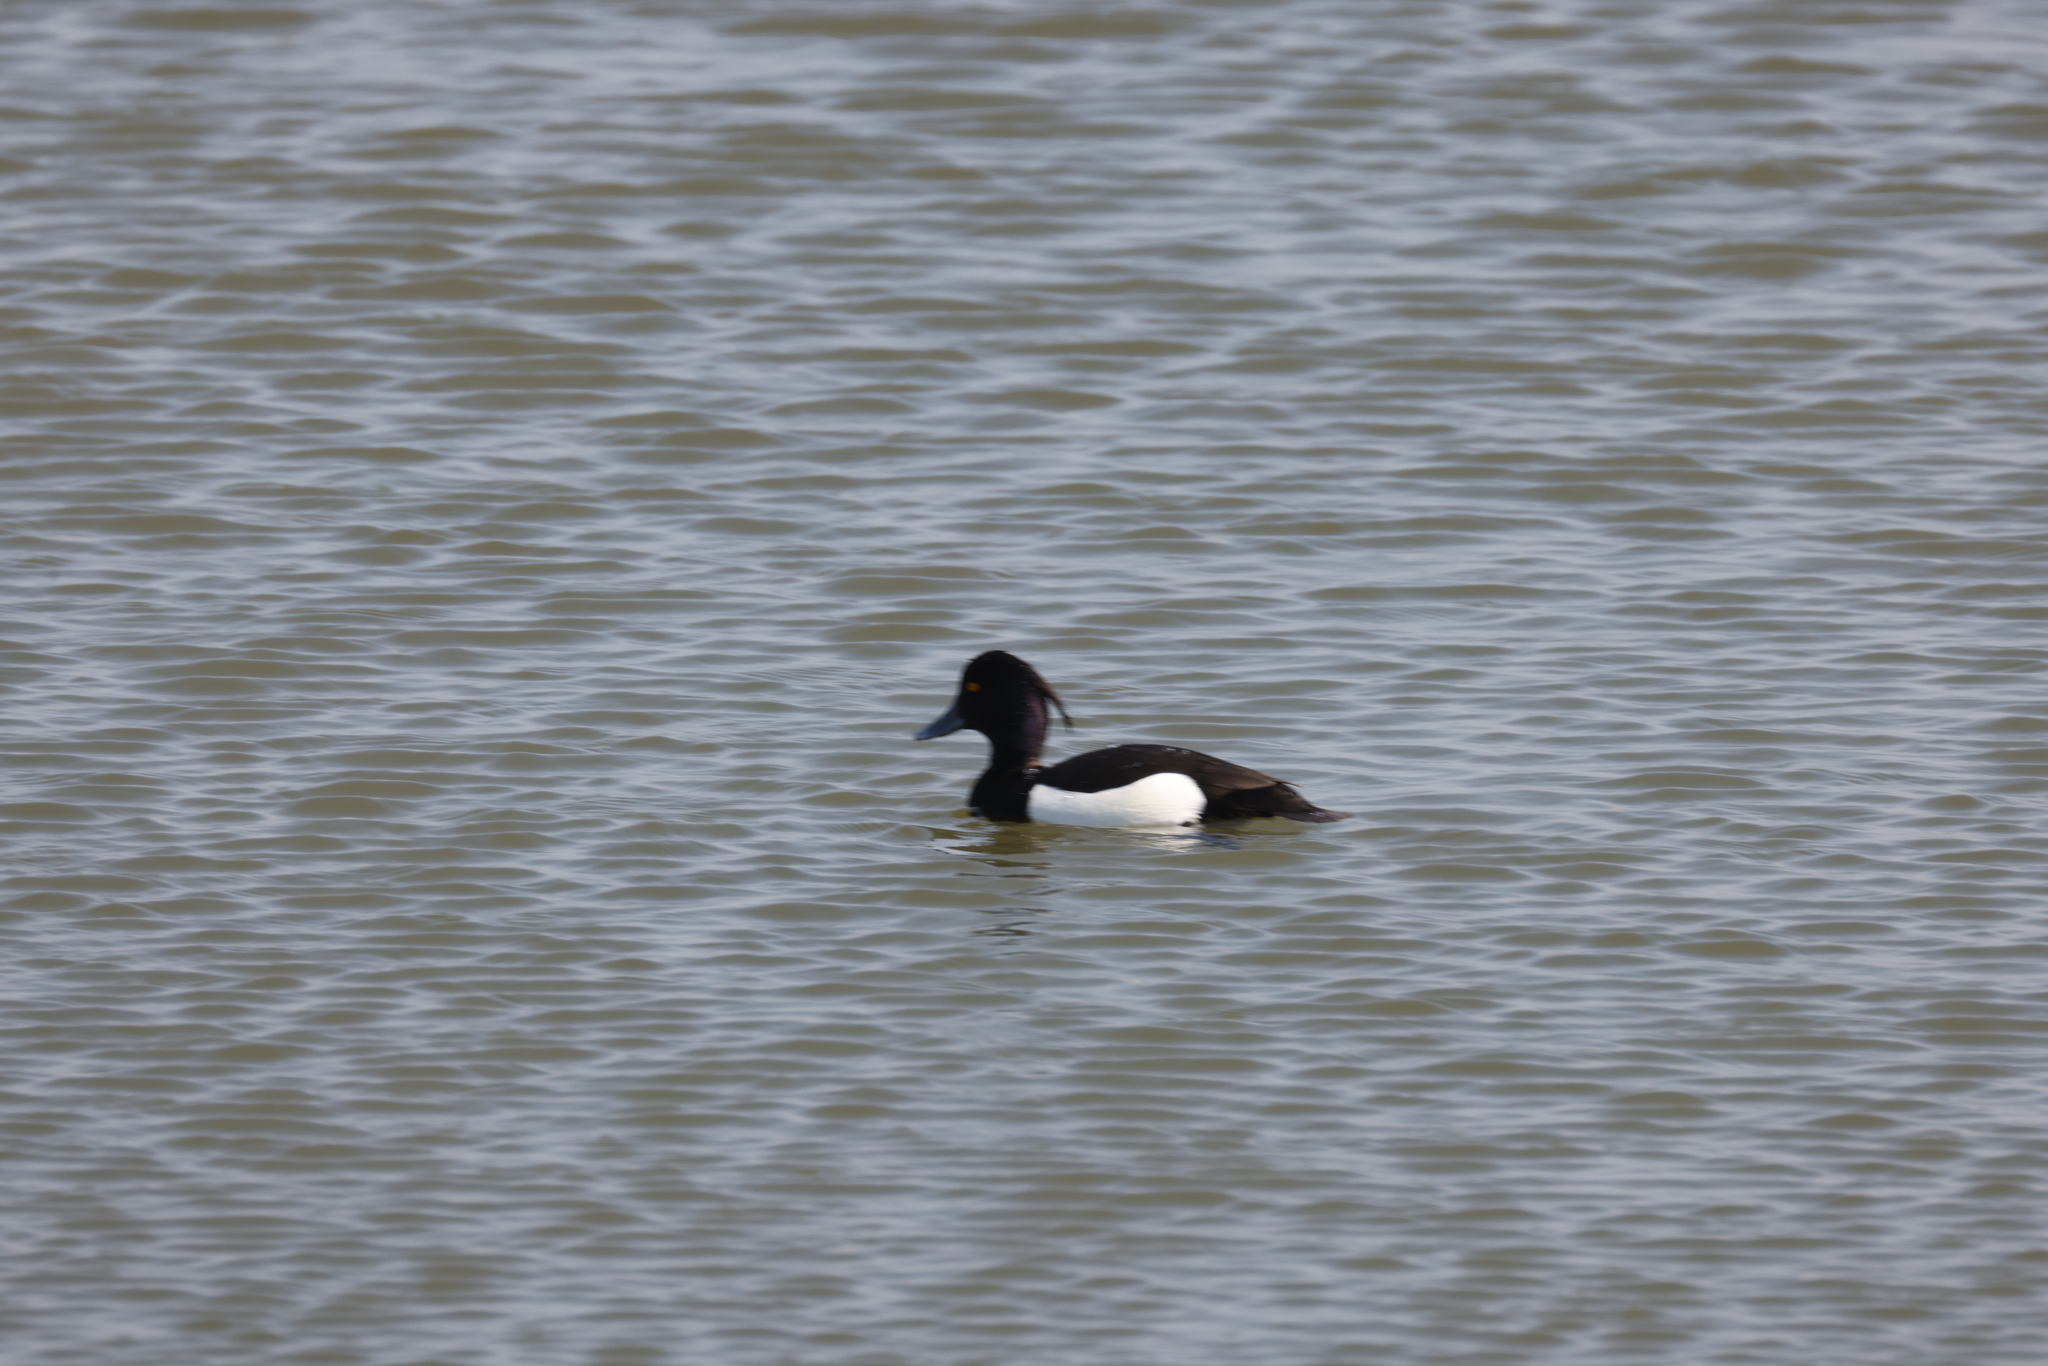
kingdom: Animalia
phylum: Chordata
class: Aves
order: Anseriformes
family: Anatidae
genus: Aythya
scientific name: Aythya fuligula
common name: Tufted duck
